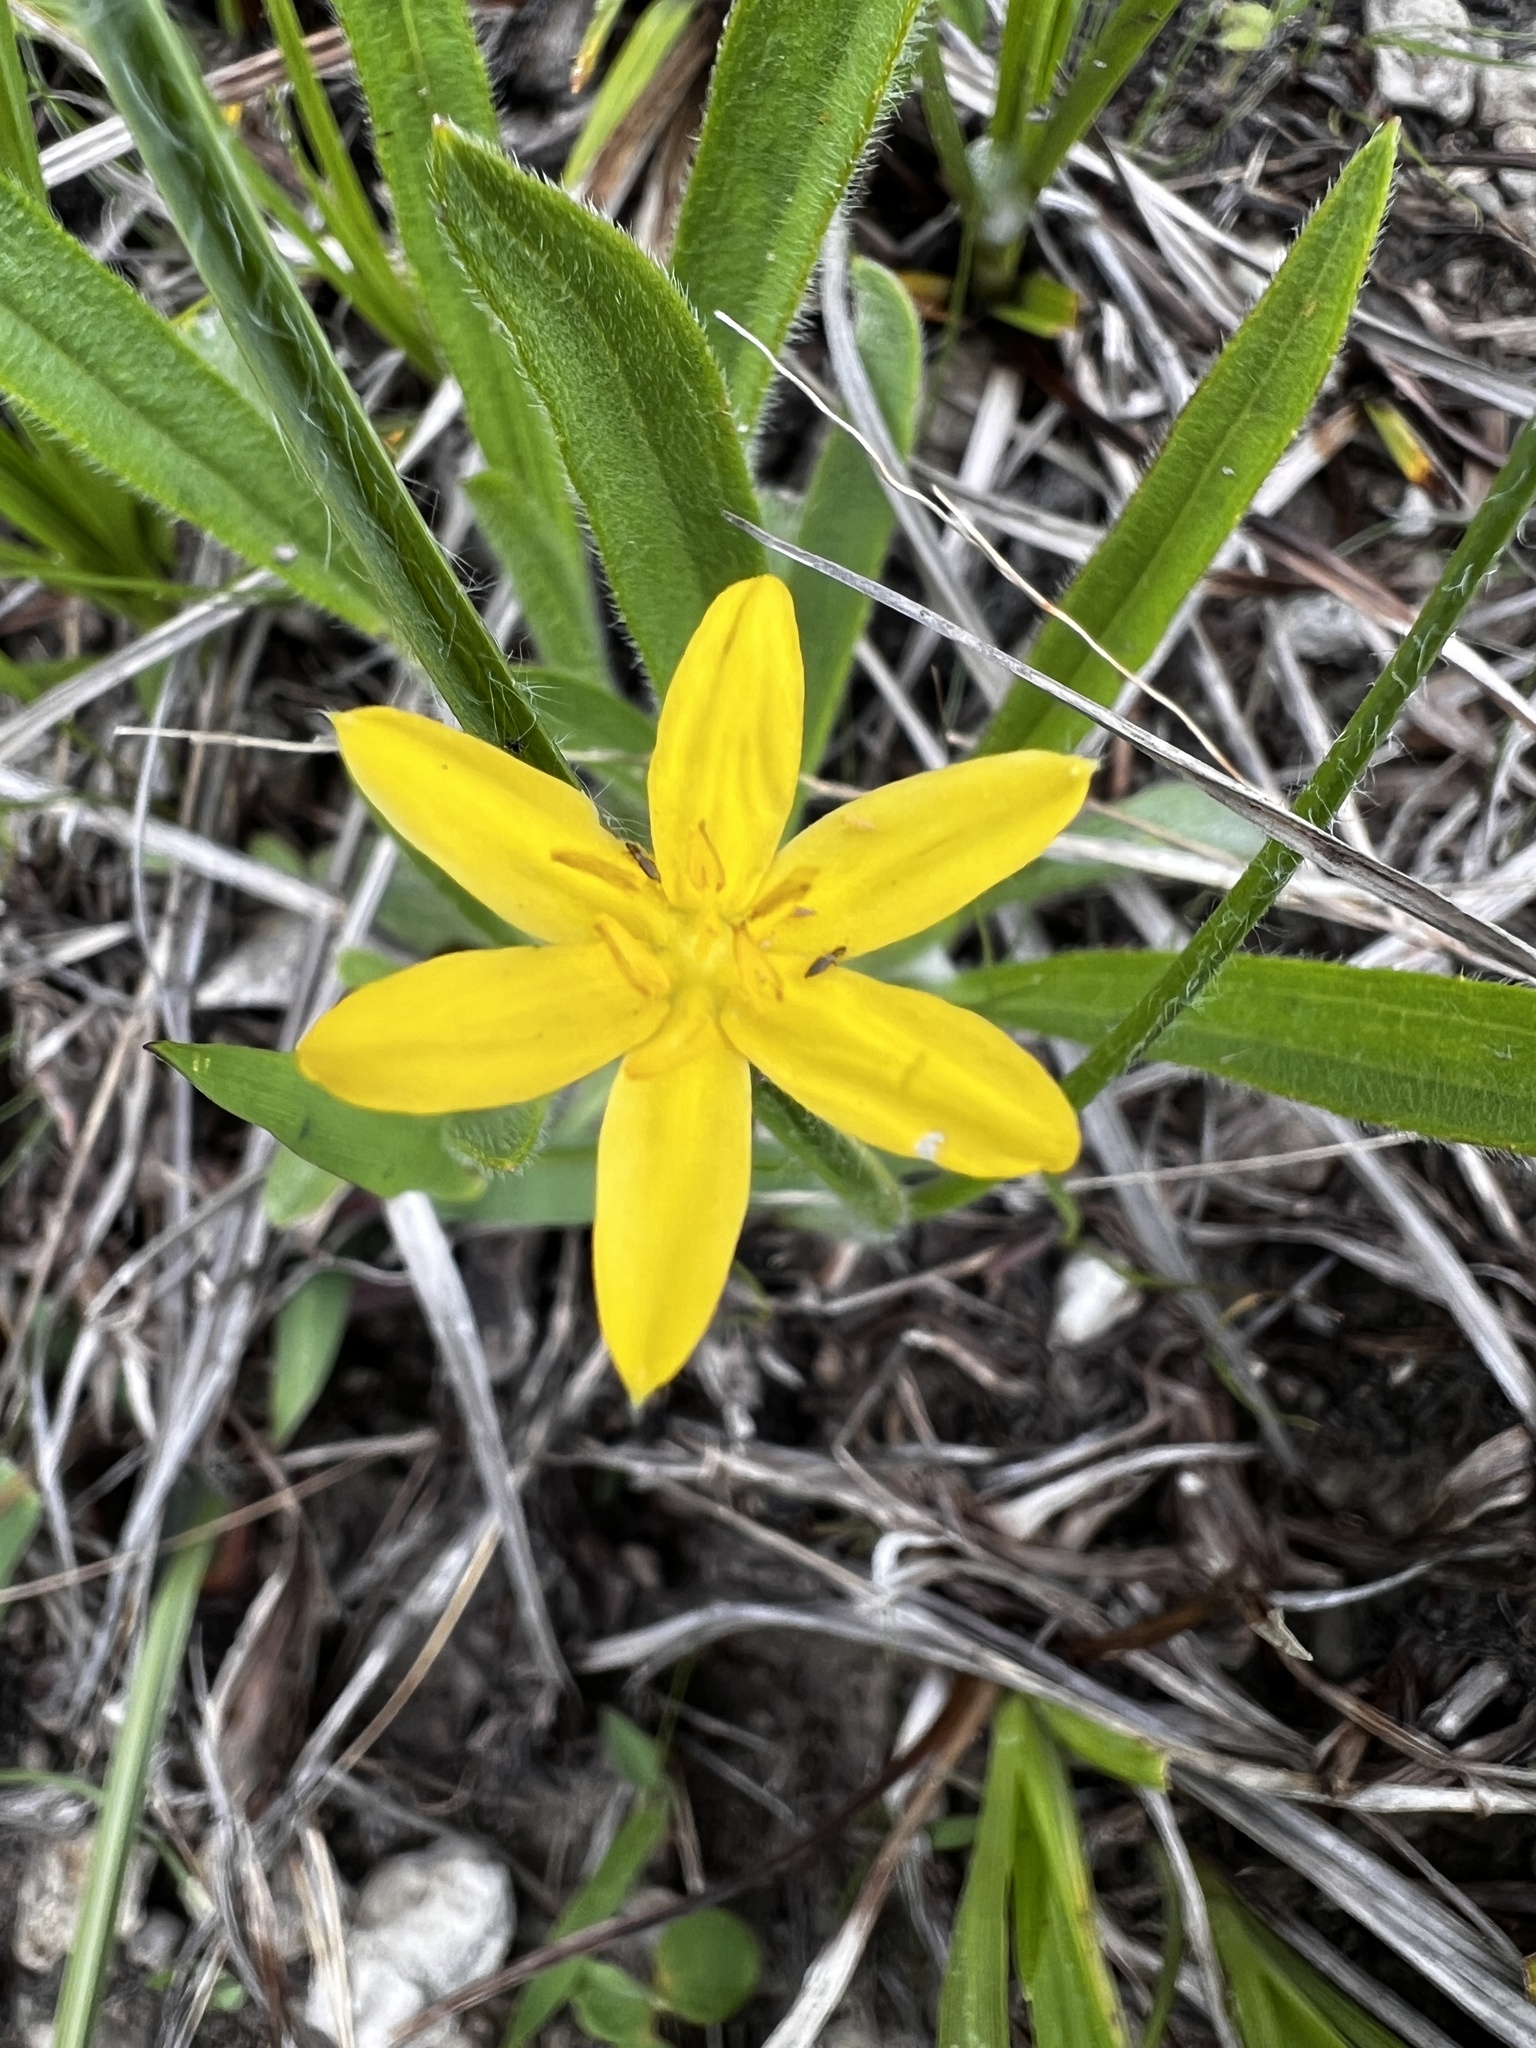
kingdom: Plantae
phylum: Tracheophyta
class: Liliopsida
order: Asparagales
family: Hypoxidaceae
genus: Hypoxis
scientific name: Hypoxis hirsuta
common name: Common goldstar
